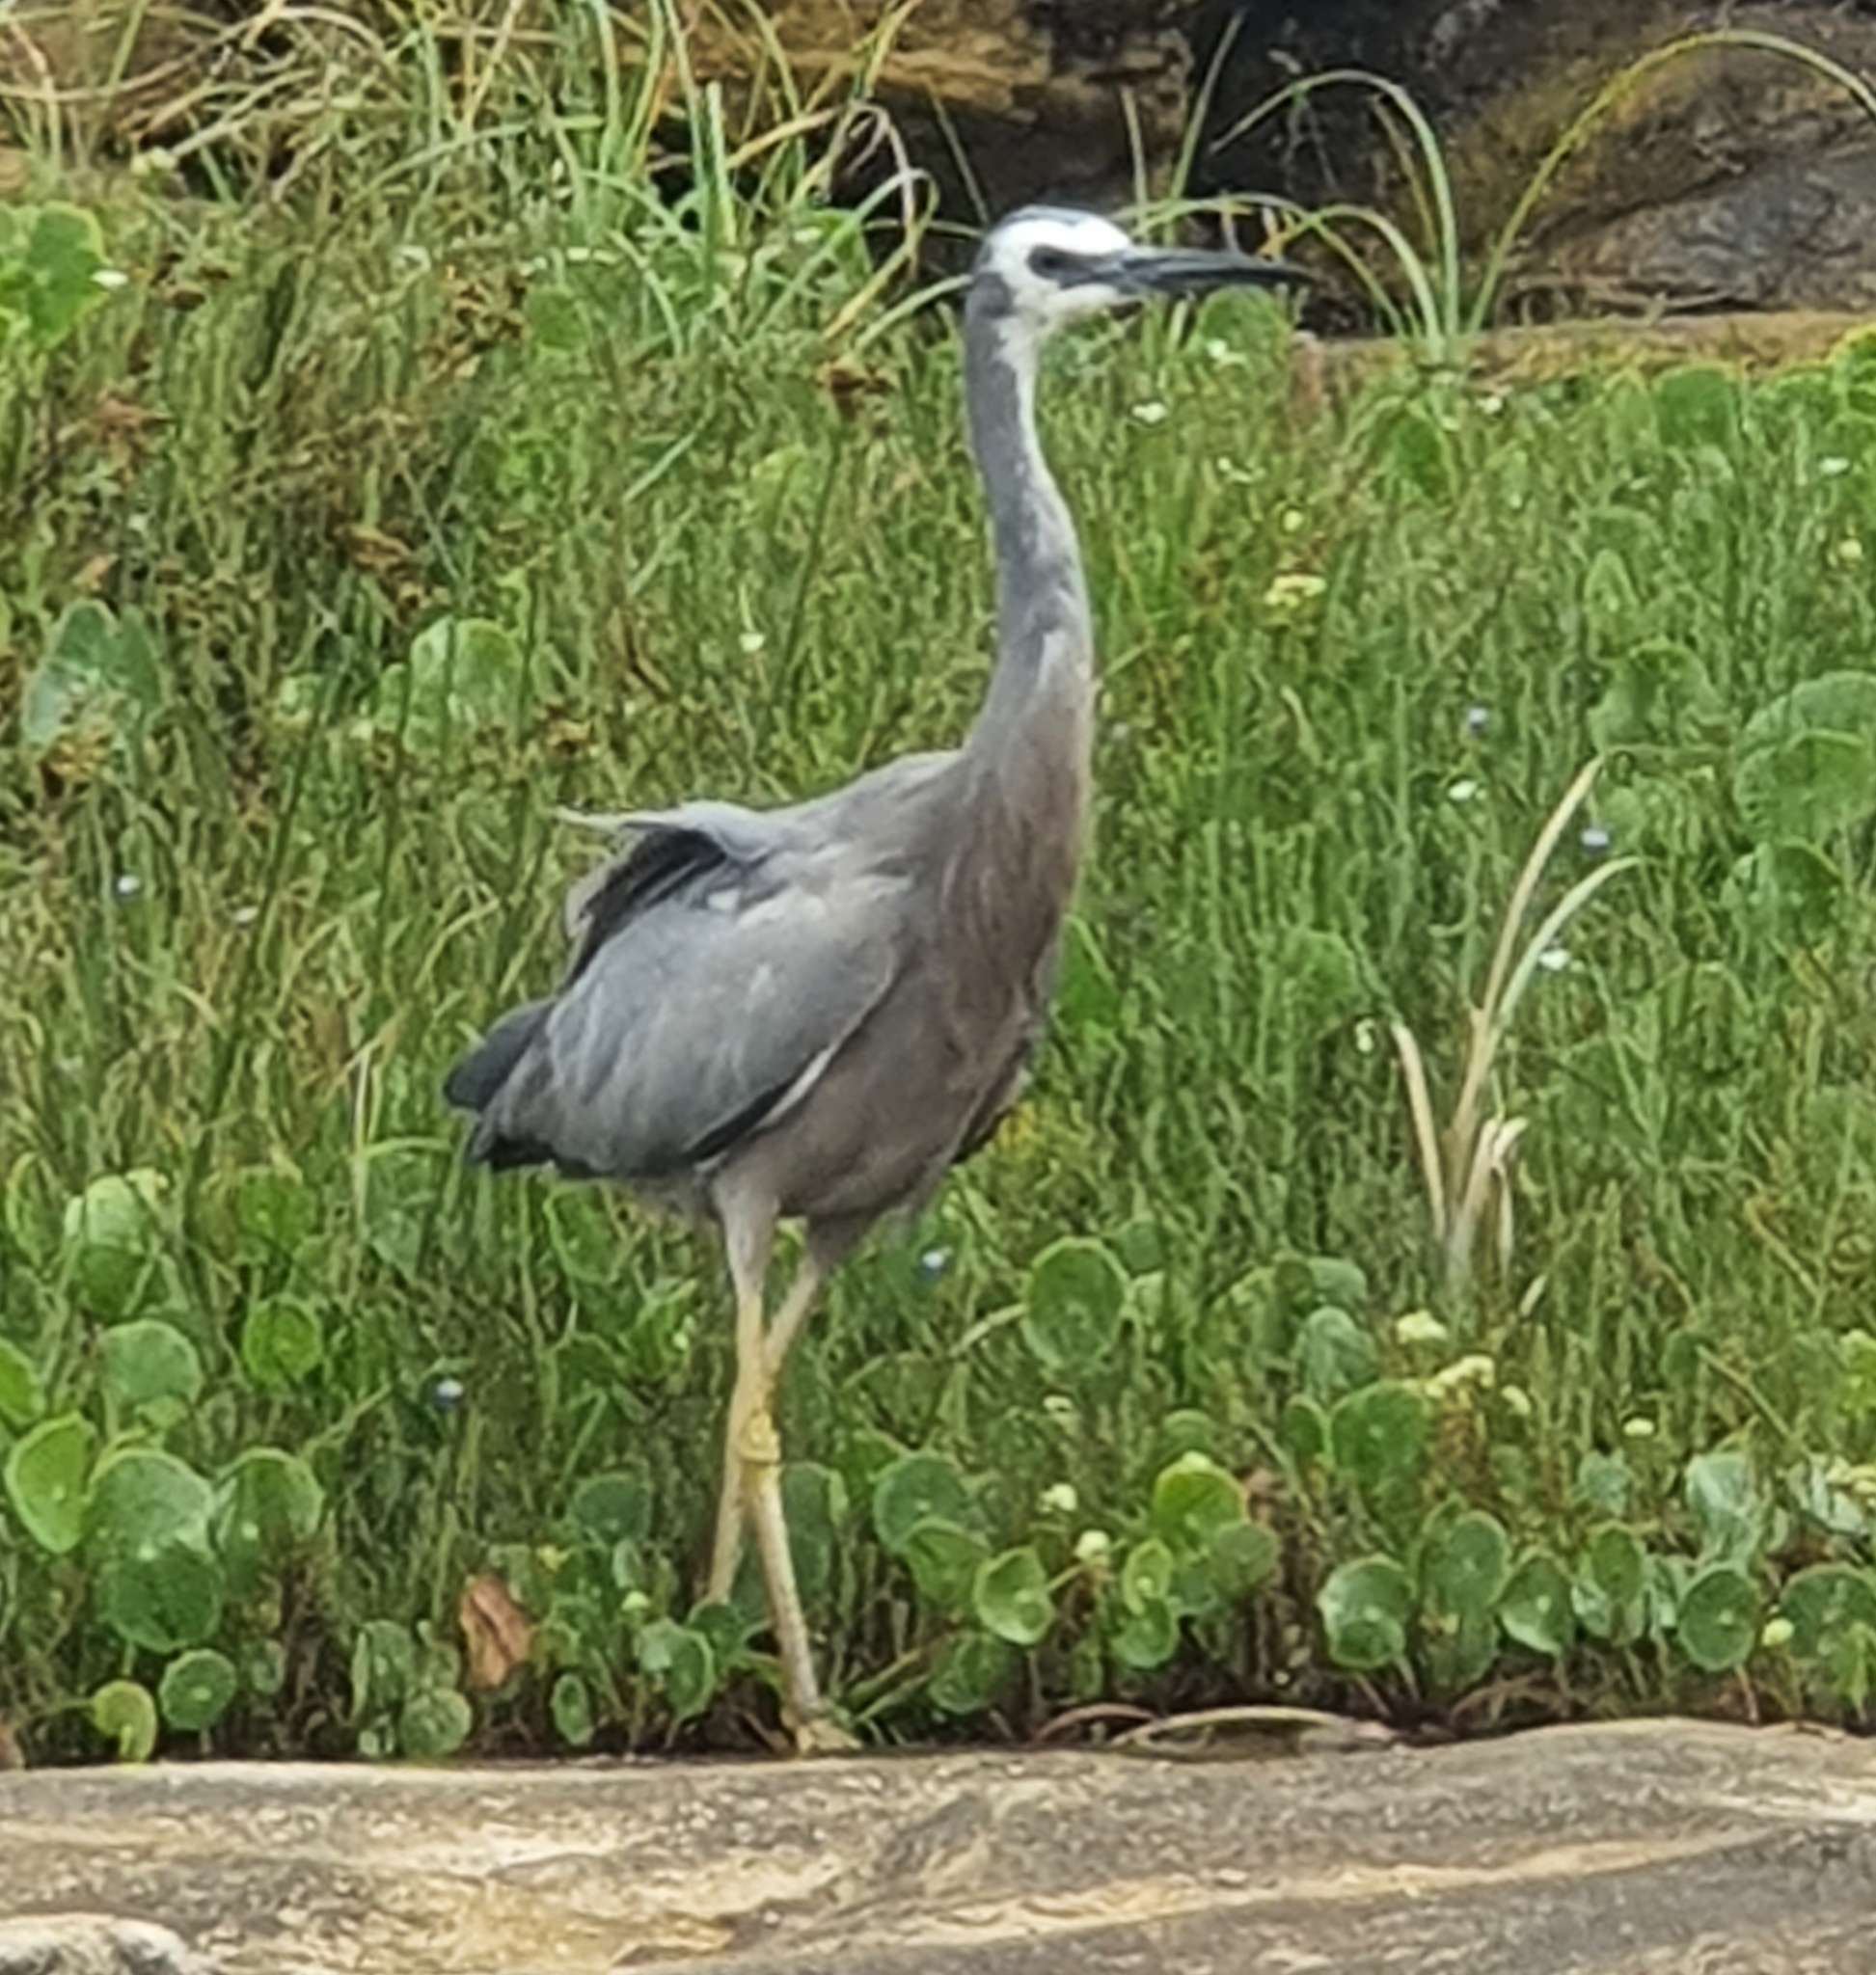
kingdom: Animalia
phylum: Chordata
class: Aves
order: Pelecaniformes
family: Ardeidae
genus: Egretta
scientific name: Egretta novaehollandiae
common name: White-faced heron
